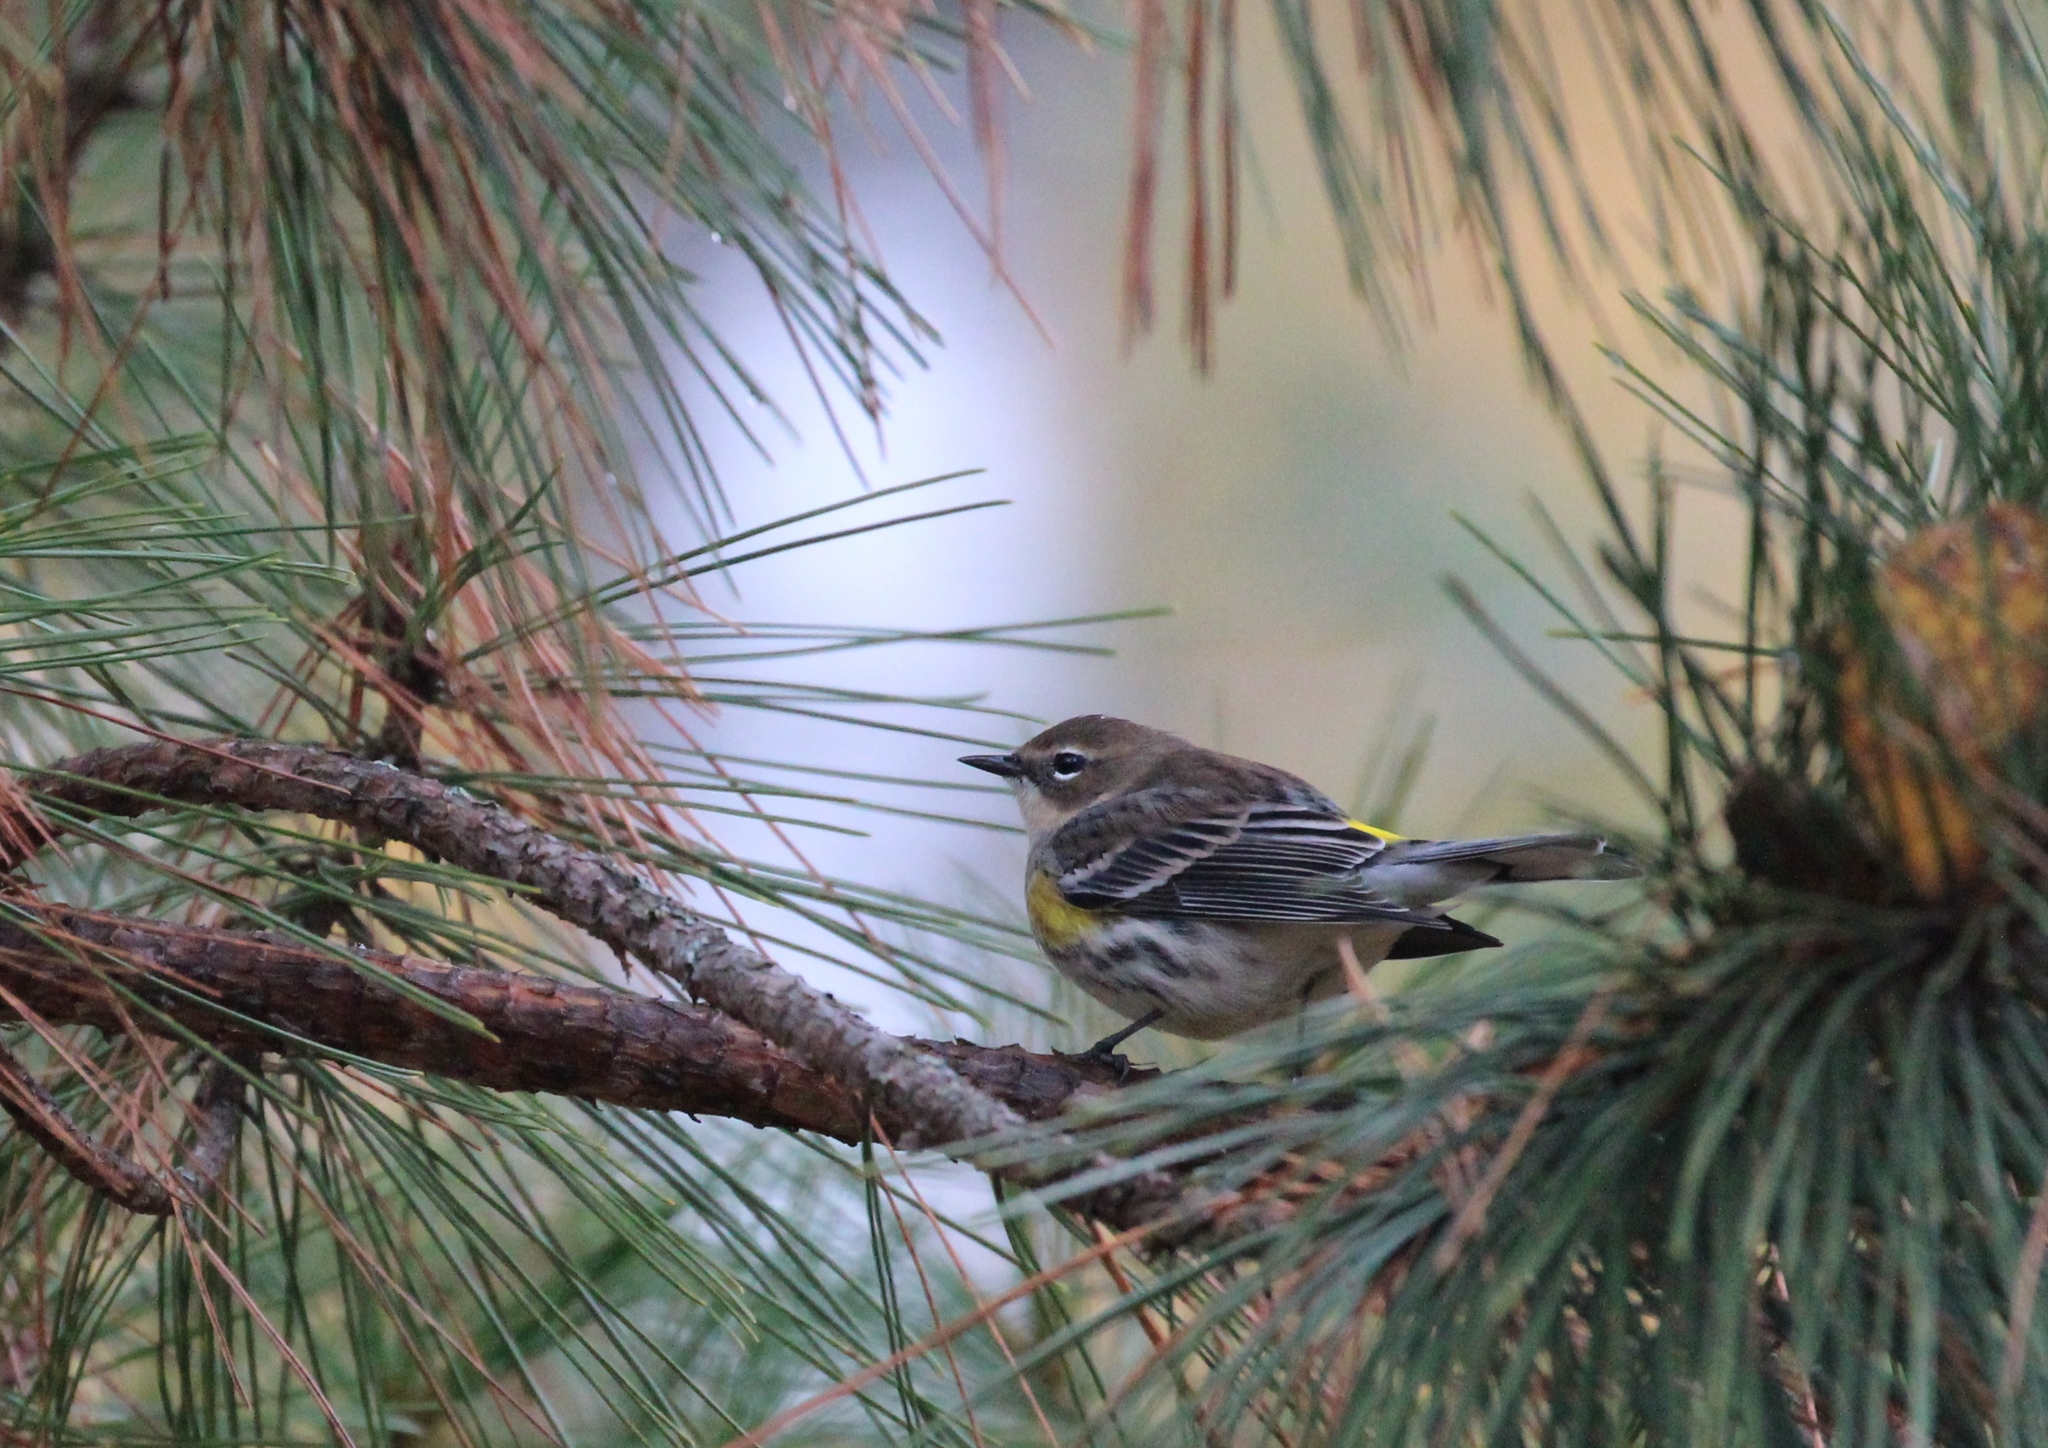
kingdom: Animalia
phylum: Chordata
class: Aves
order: Passeriformes
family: Parulidae
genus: Setophaga
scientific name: Setophaga coronata
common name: Myrtle warbler
